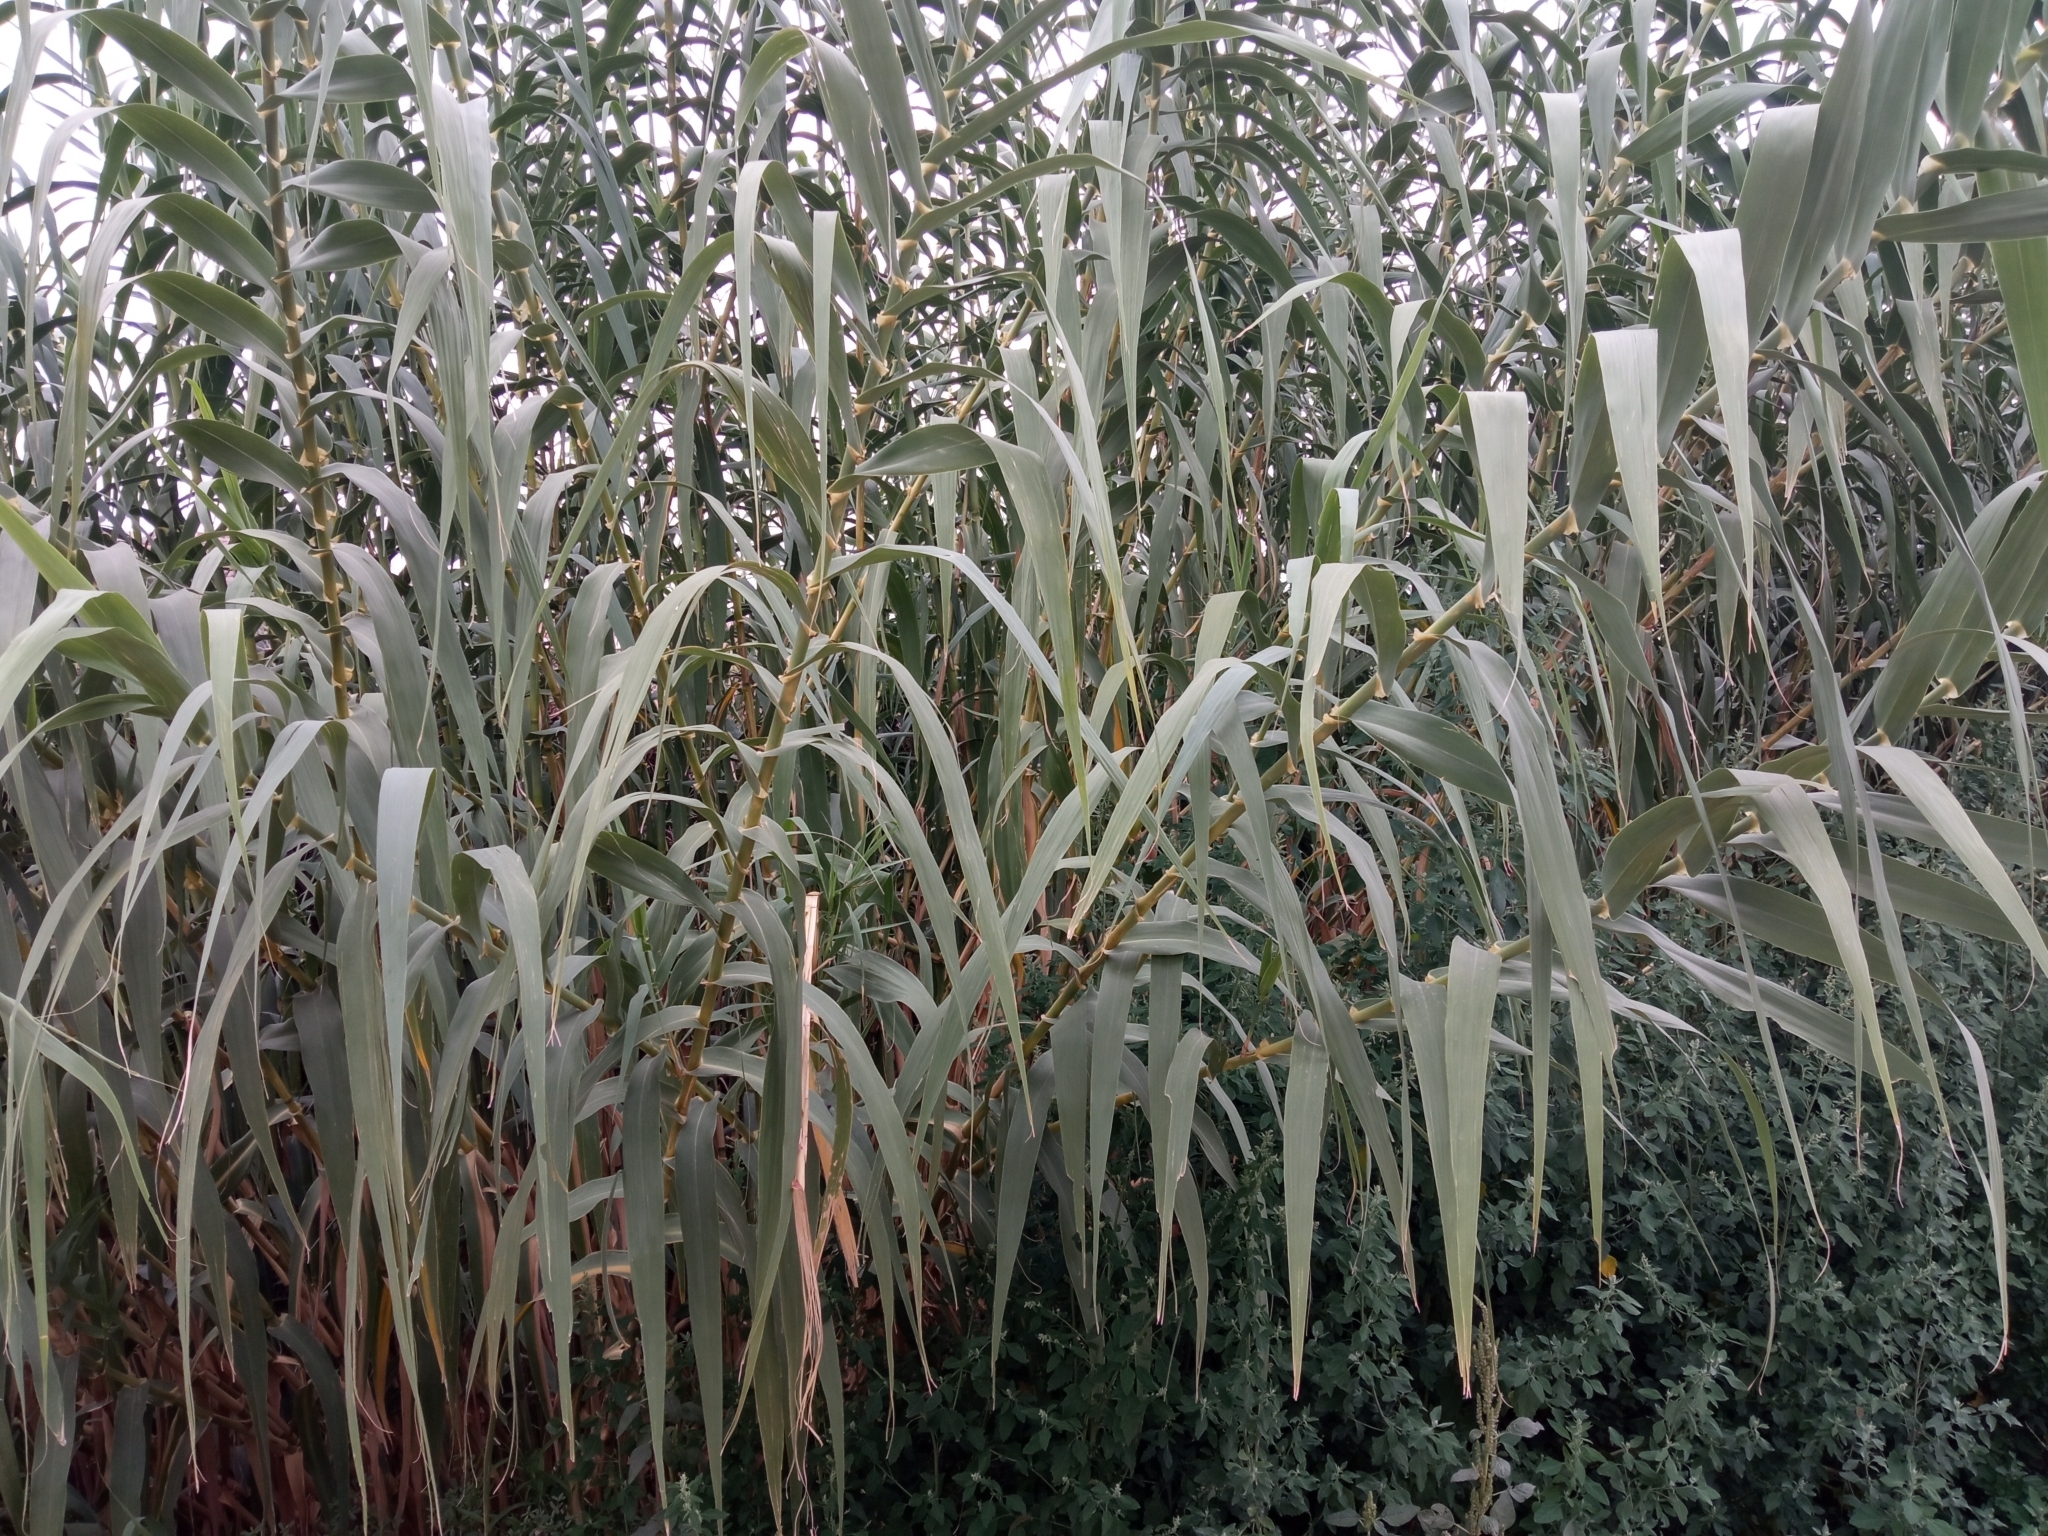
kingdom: Plantae
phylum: Tracheophyta
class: Liliopsida
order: Poales
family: Poaceae
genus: Arundo
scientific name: Arundo donax
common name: Giant reed
